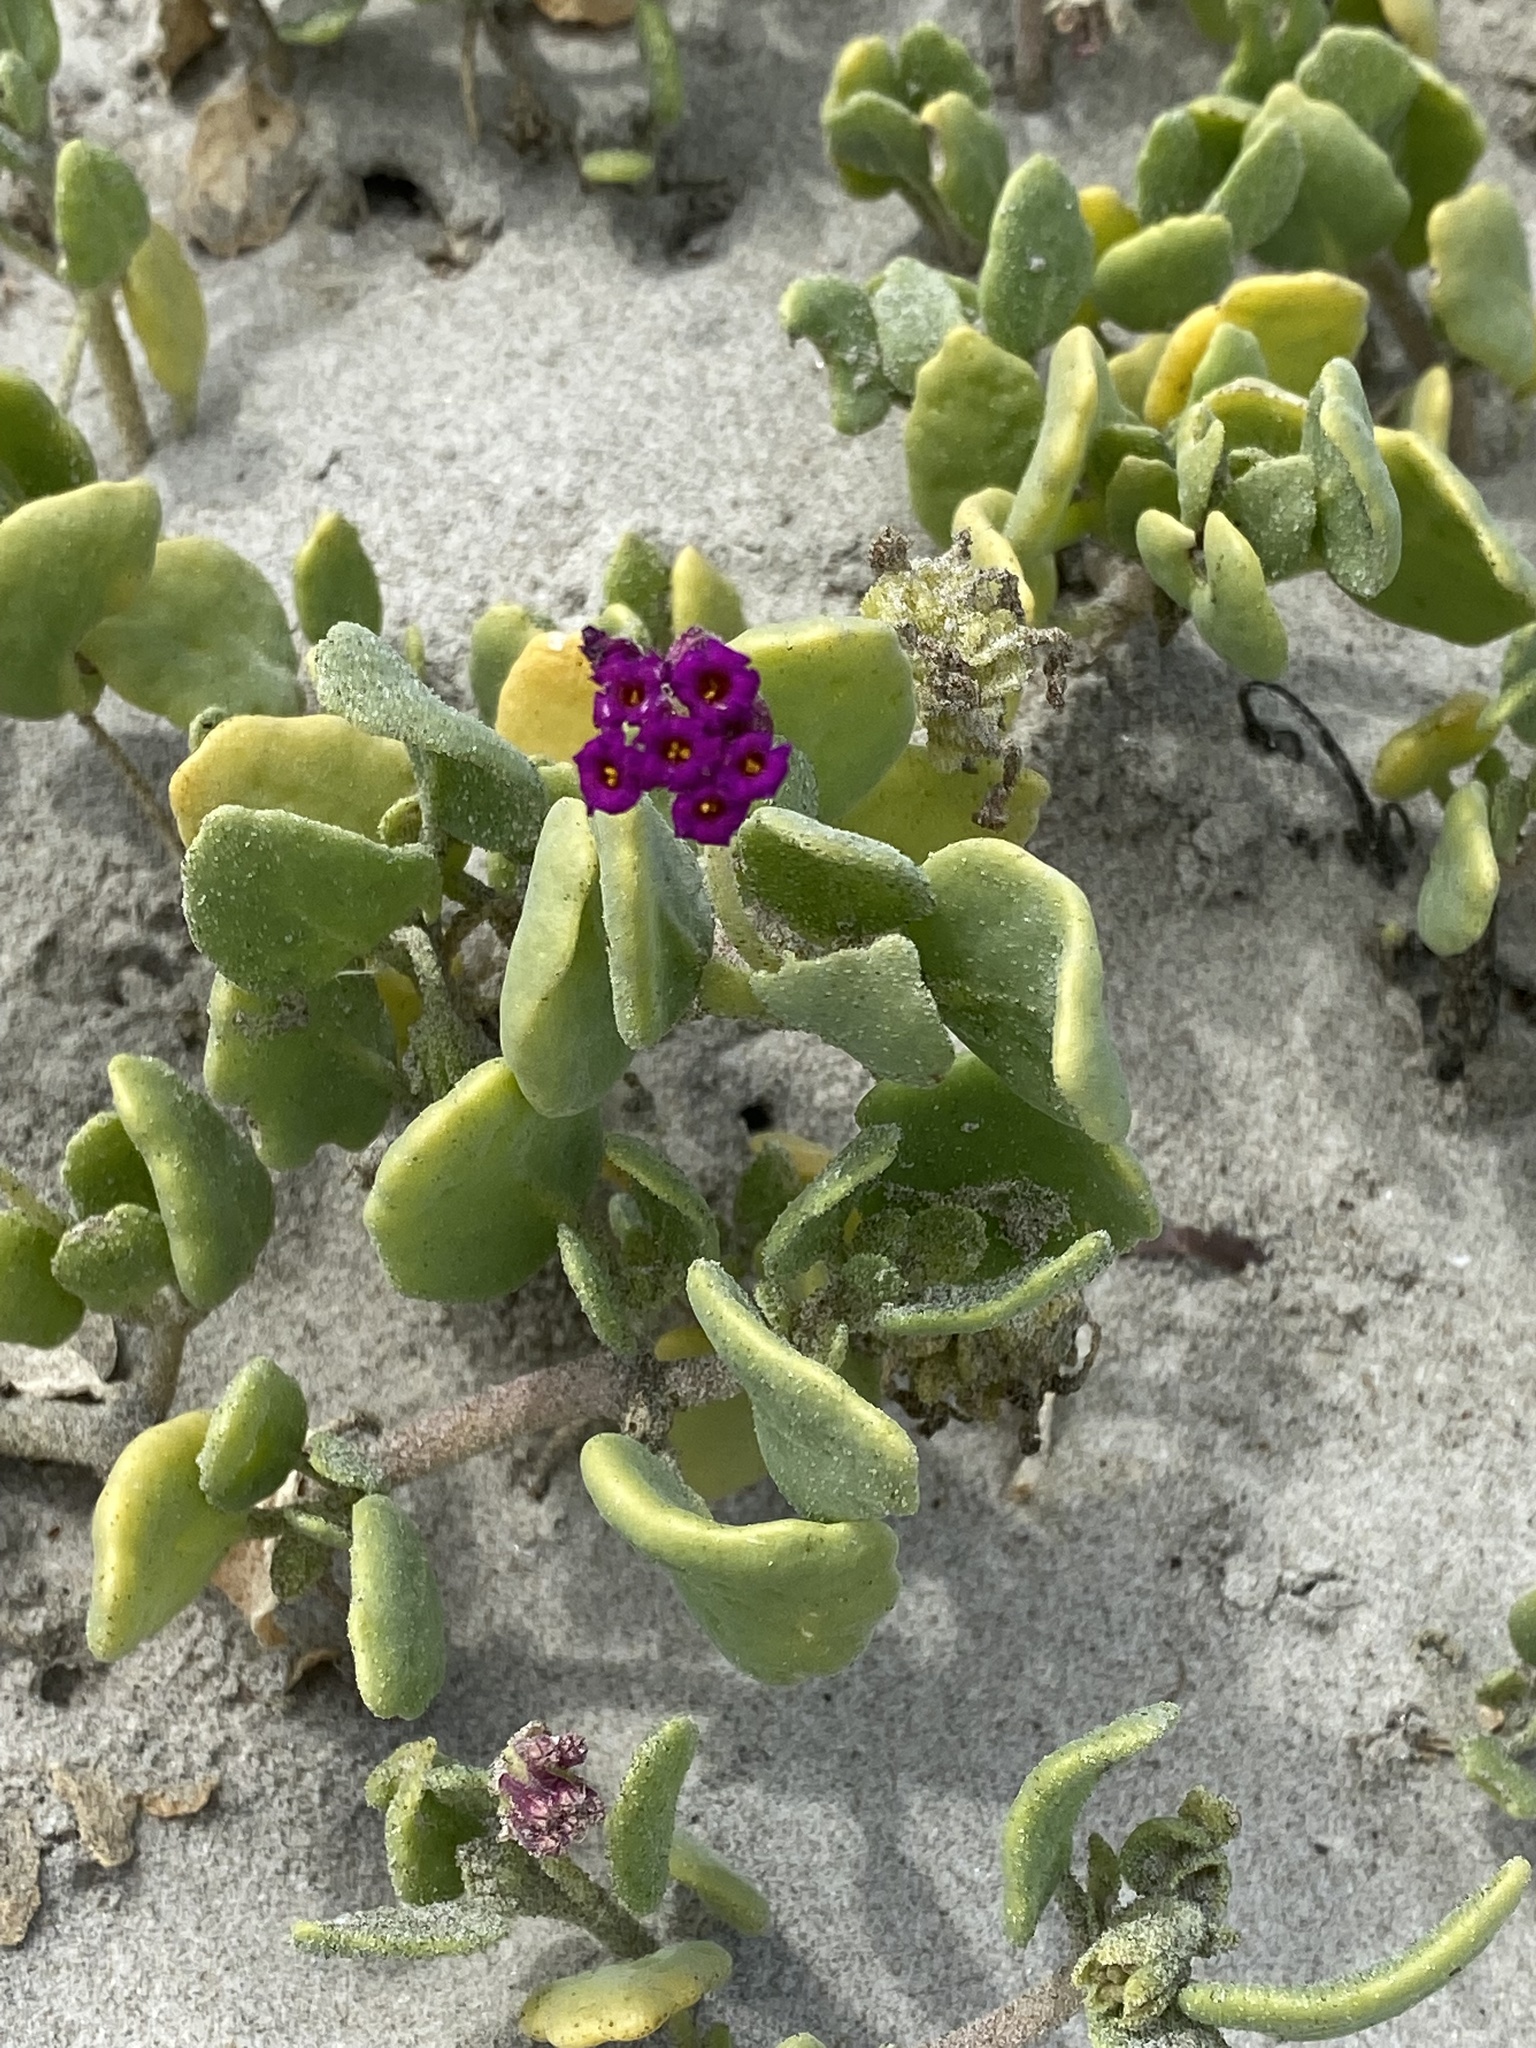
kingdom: Plantae
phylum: Tracheophyta
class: Magnoliopsida
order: Caryophyllales
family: Nyctaginaceae
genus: Abronia
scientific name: Abronia maritima
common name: Red sand-verbena
